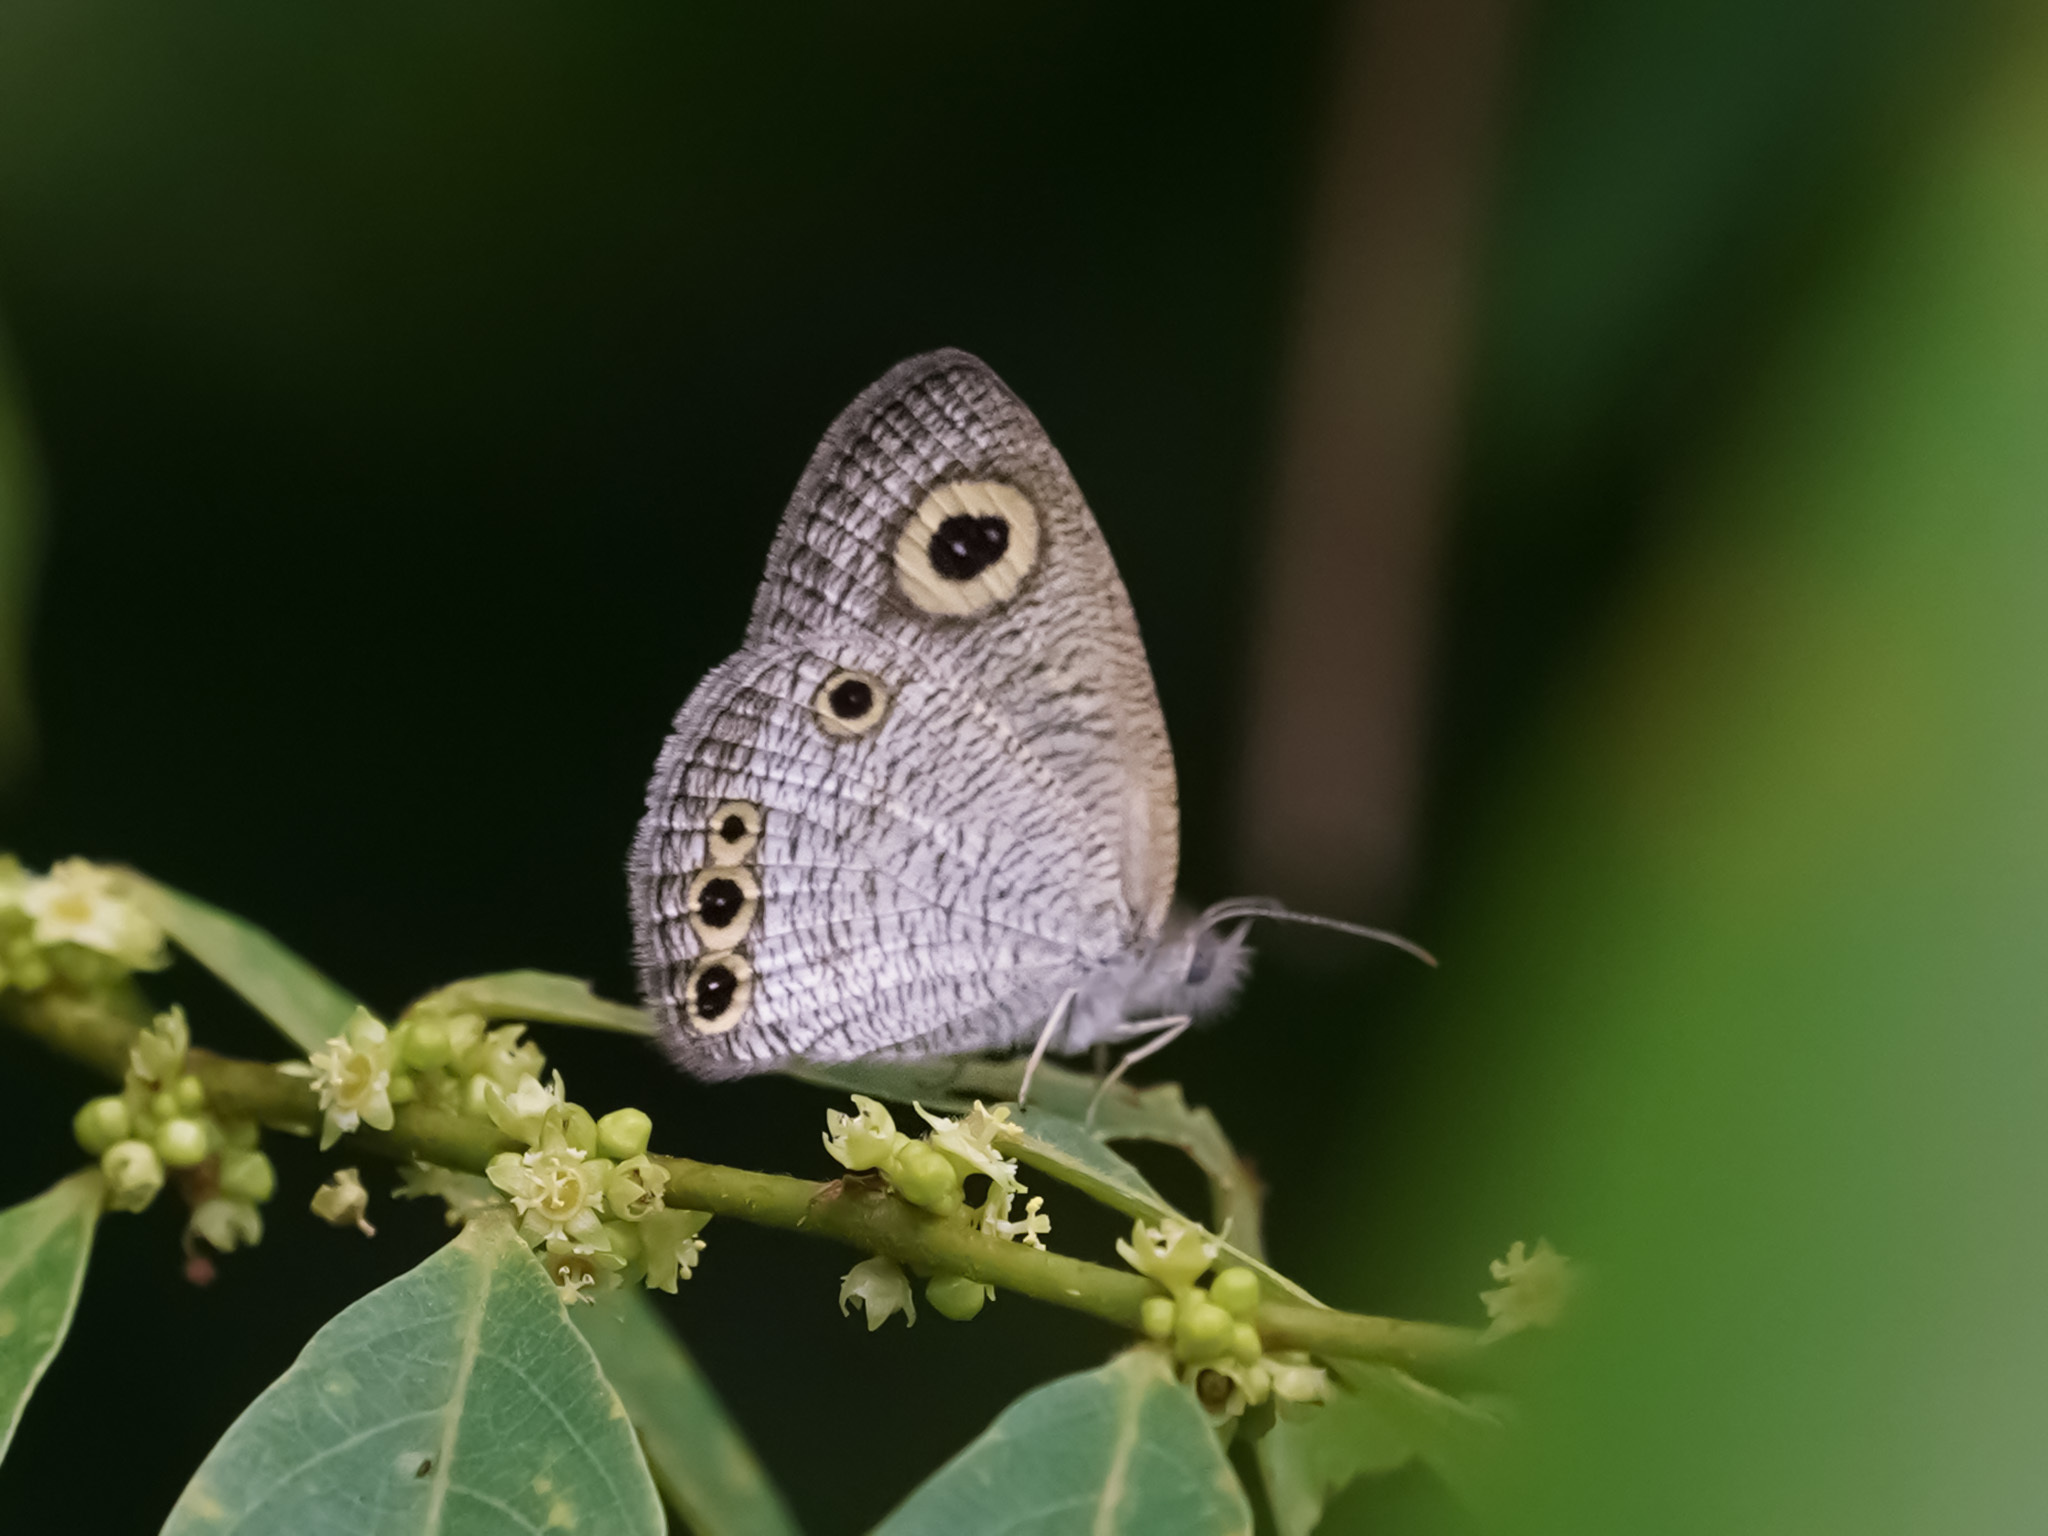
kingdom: Animalia
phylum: Arthropoda
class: Insecta
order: Lepidoptera
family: Nymphalidae
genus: Ypthima
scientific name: Ypthima huebneri
